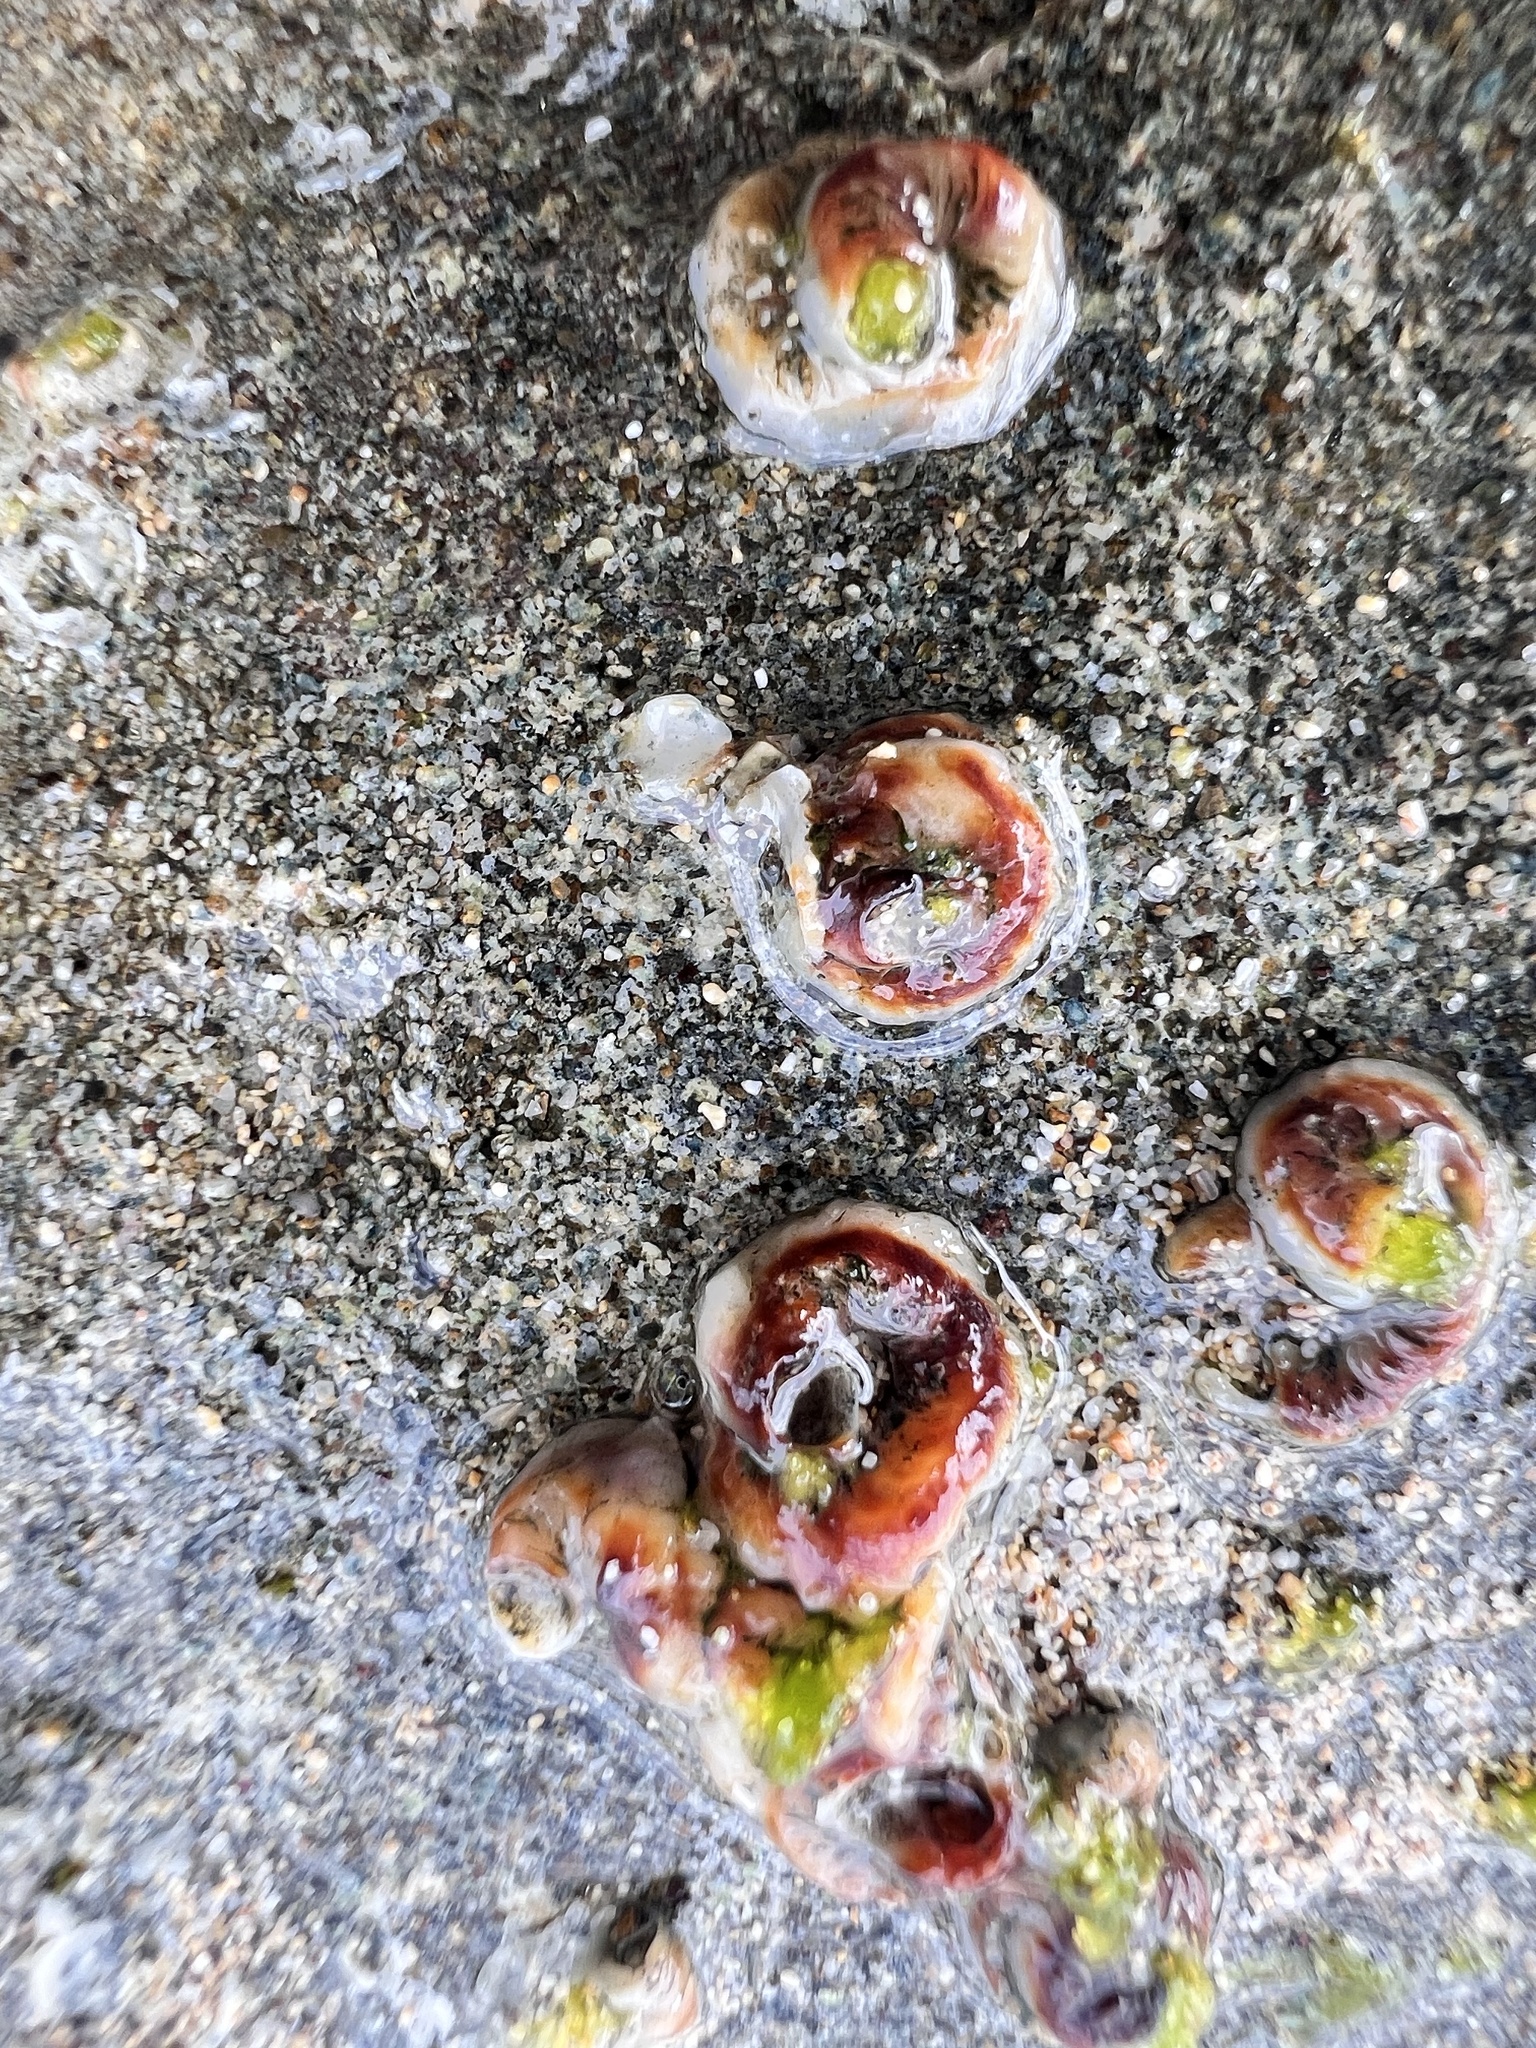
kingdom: Animalia
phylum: Mollusca
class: Gastropoda
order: Littorinimorpha
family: Vermetidae
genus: Dendropoma
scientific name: Dendropoma gregarium
